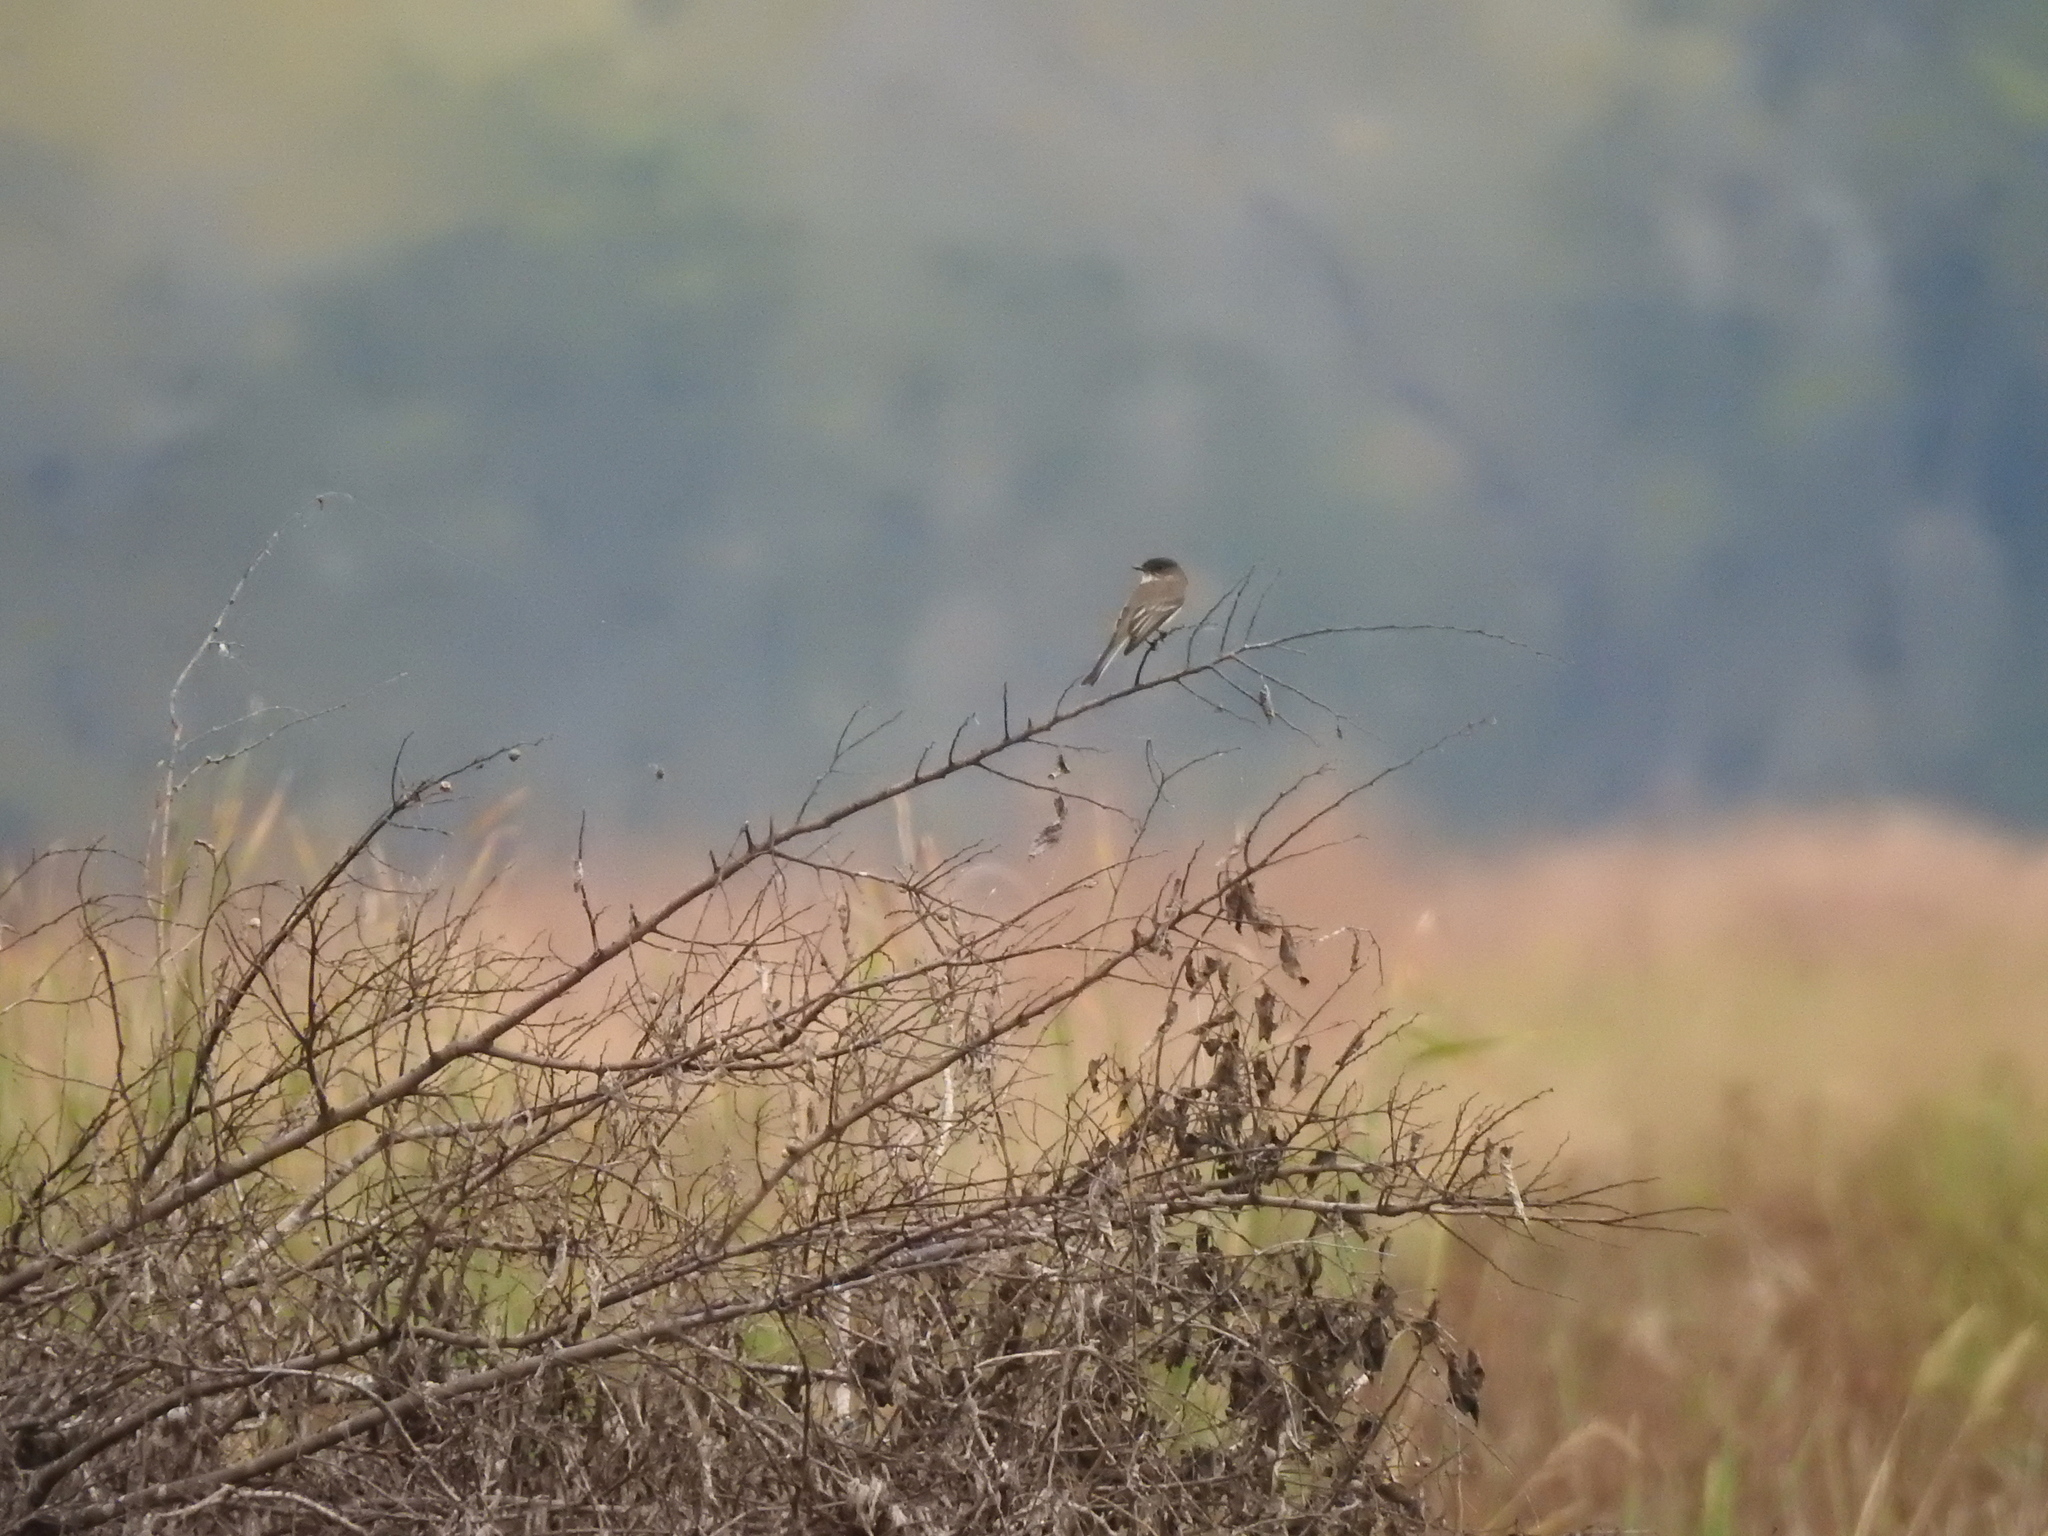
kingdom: Animalia
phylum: Chordata
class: Aves
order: Passeriformes
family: Tyrannidae
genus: Sayornis
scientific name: Sayornis phoebe
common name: Eastern phoebe
